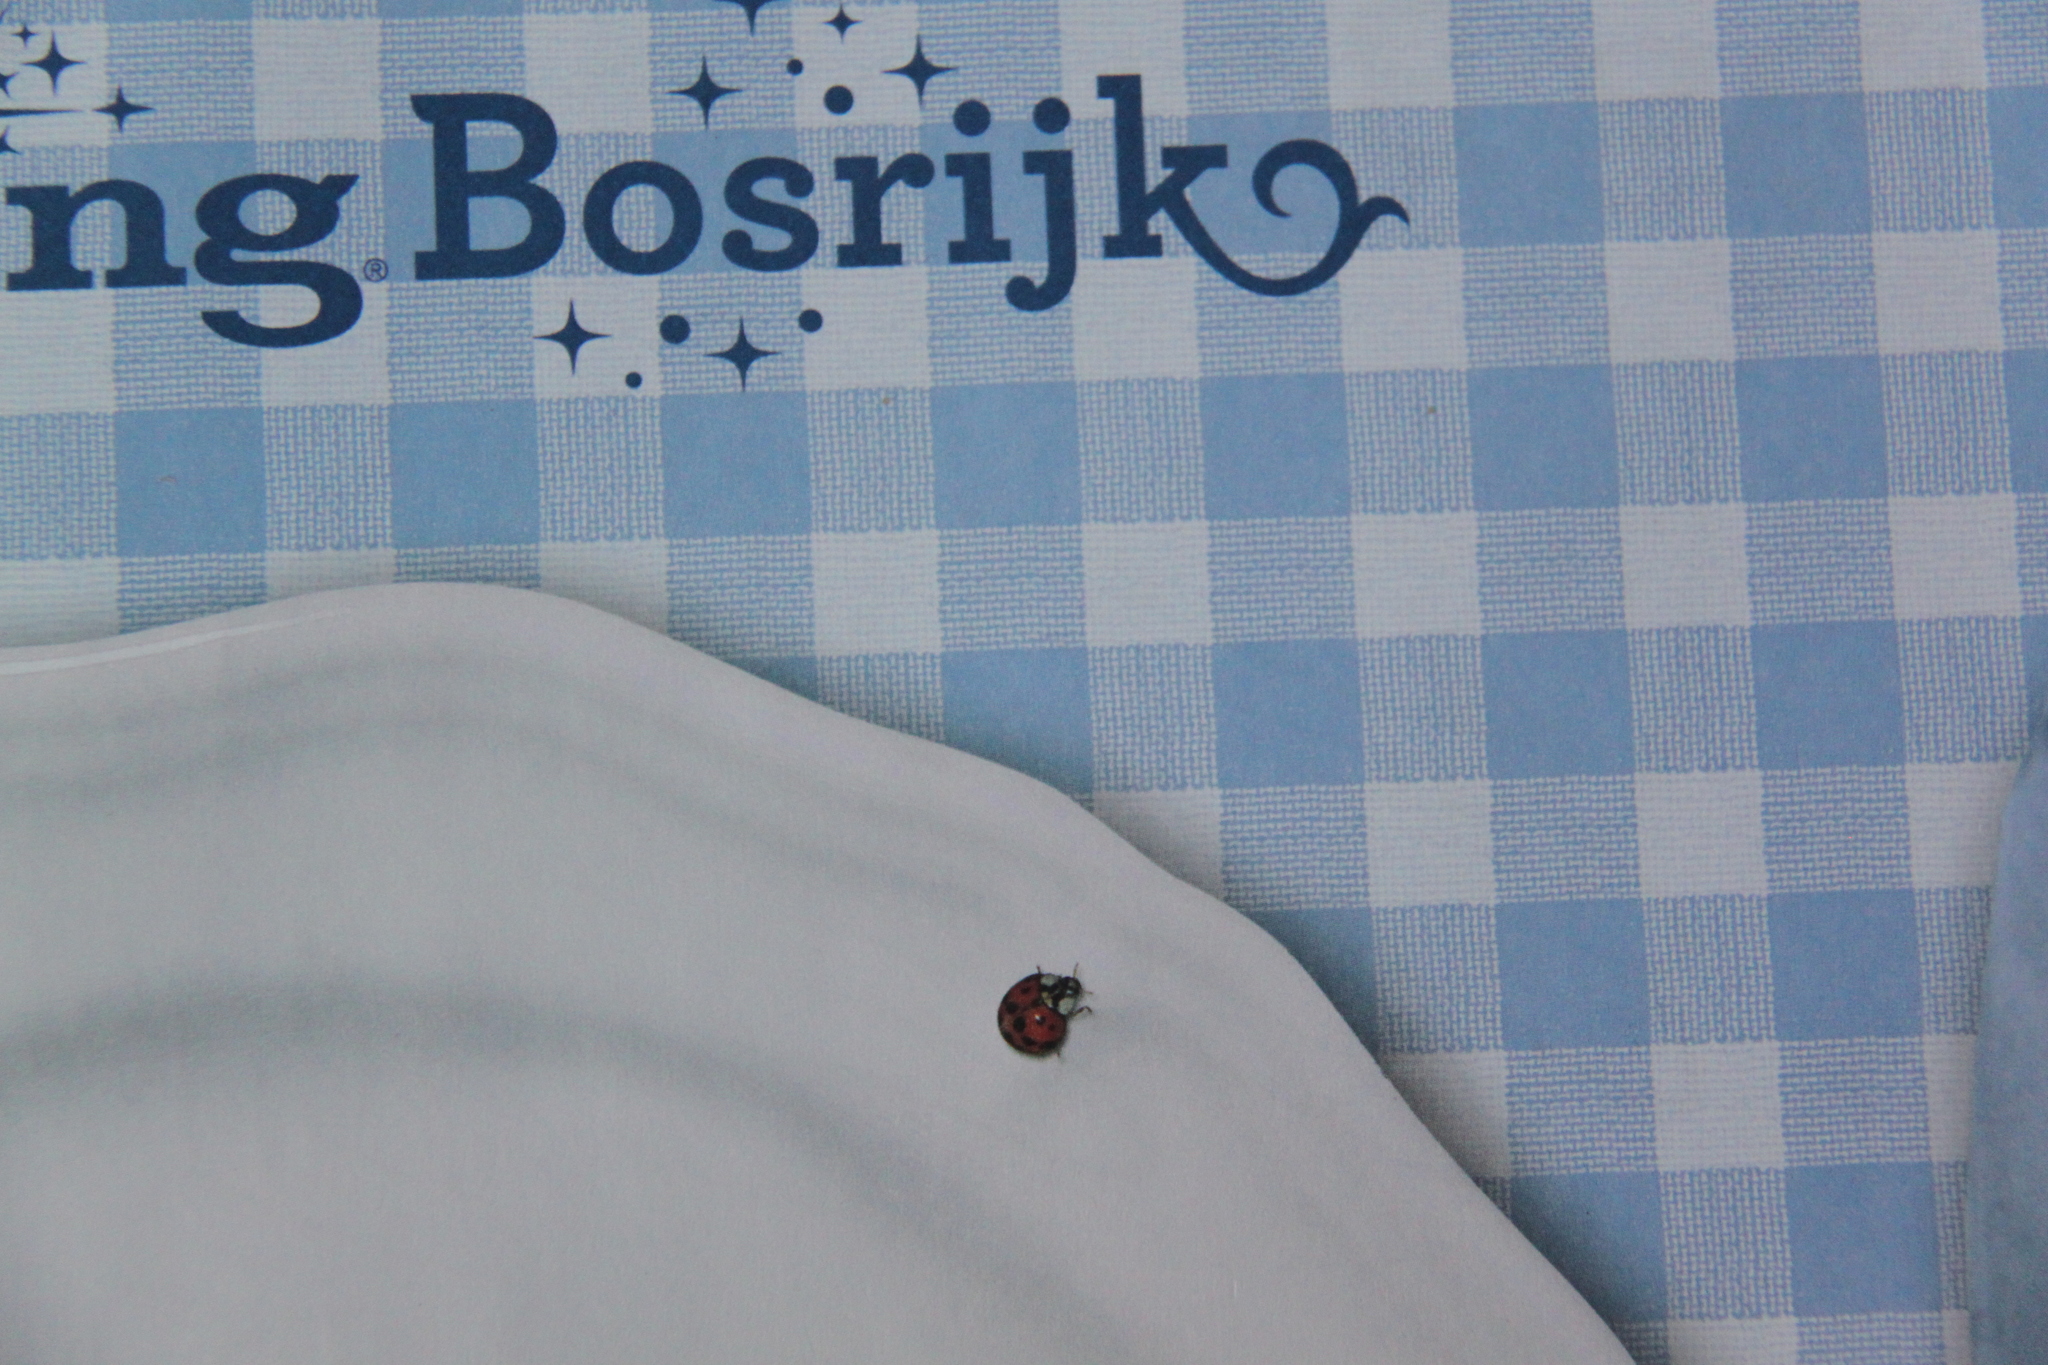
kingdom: Animalia
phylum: Arthropoda
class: Insecta
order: Coleoptera
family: Coccinellidae
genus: Harmonia
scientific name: Harmonia axyridis
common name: Harlequin ladybird
